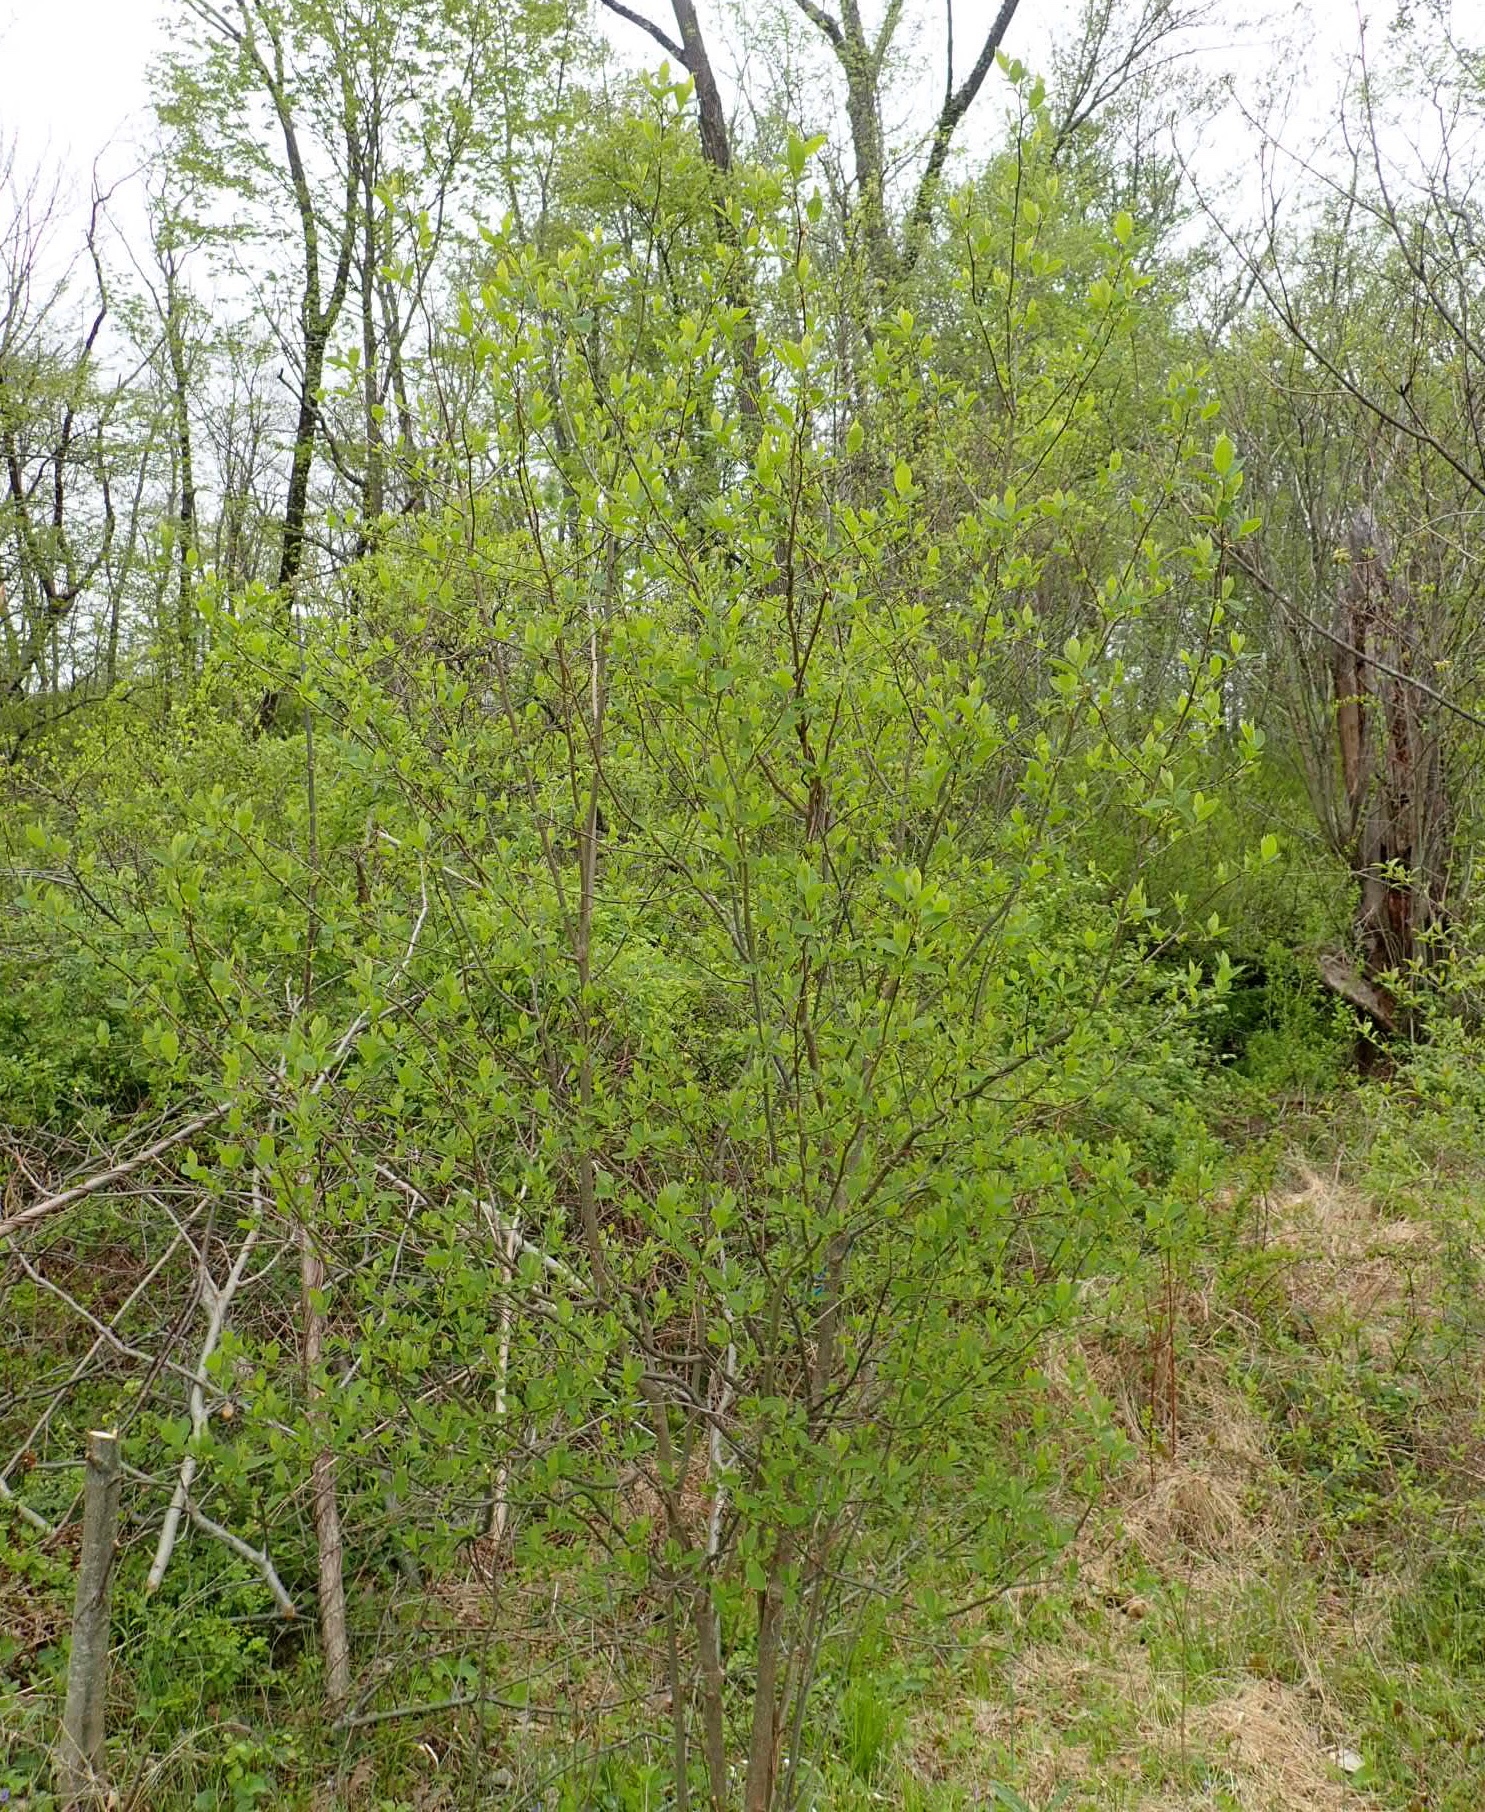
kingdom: Plantae
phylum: Tracheophyta
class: Magnoliopsida
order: Laurales
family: Lauraceae
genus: Lindera
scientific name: Lindera benzoin
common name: Spicebush
